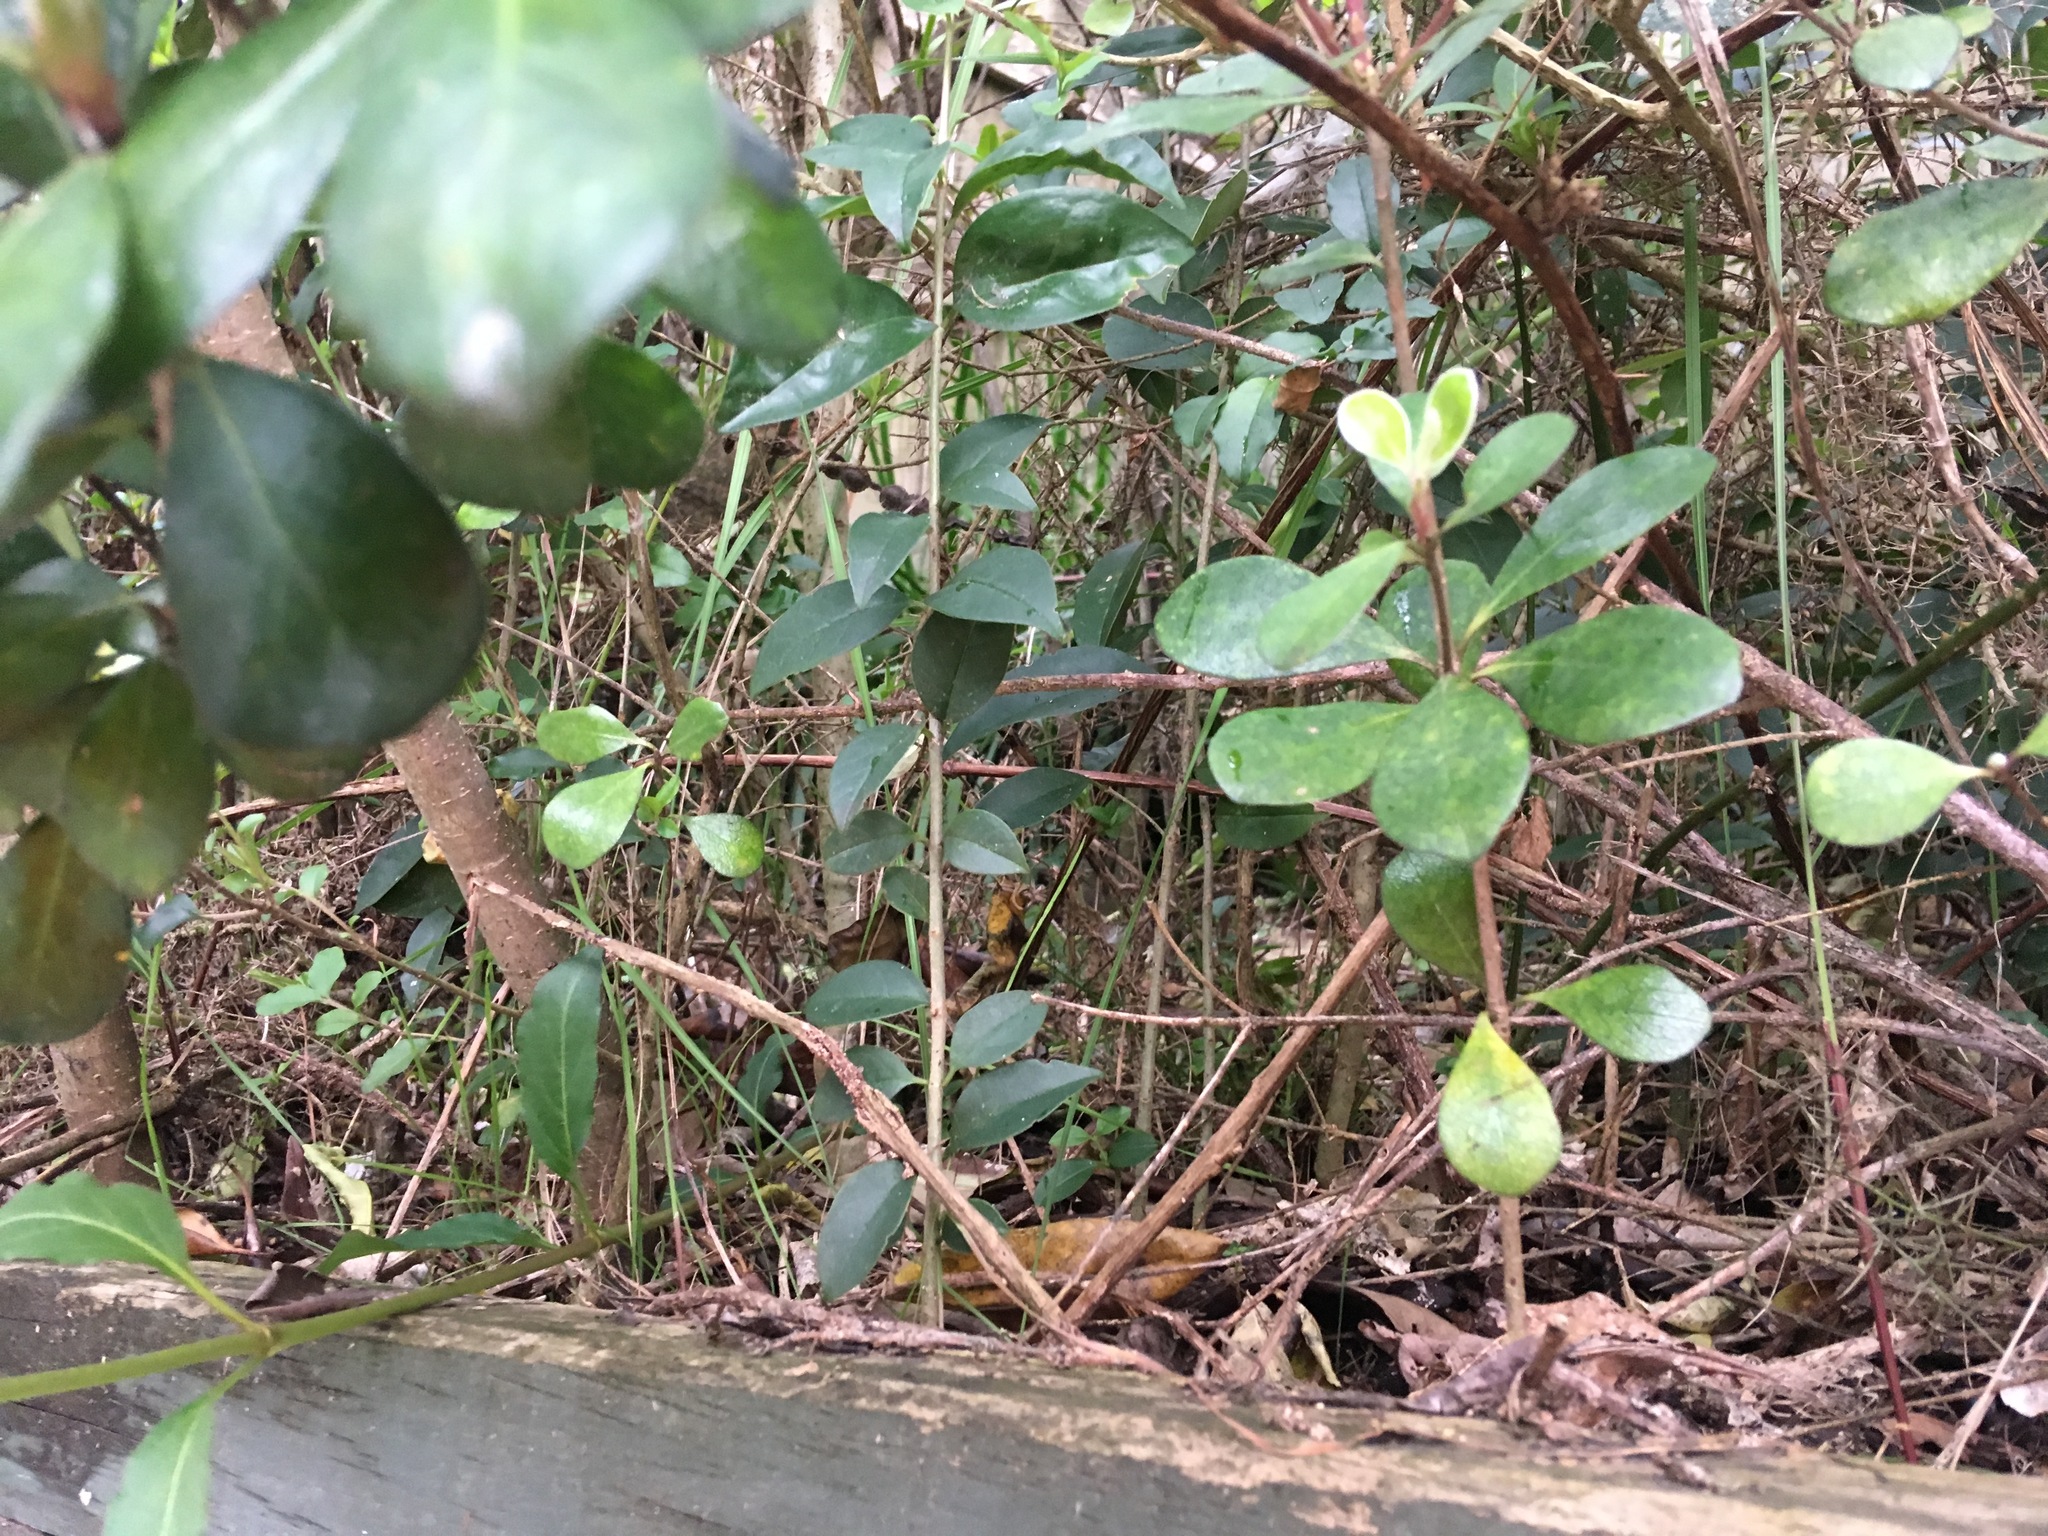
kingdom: Plantae
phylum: Tracheophyta
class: Magnoliopsida
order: Apiales
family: Pittosporaceae
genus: Pittosporum
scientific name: Pittosporum crassifolium
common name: Karo
